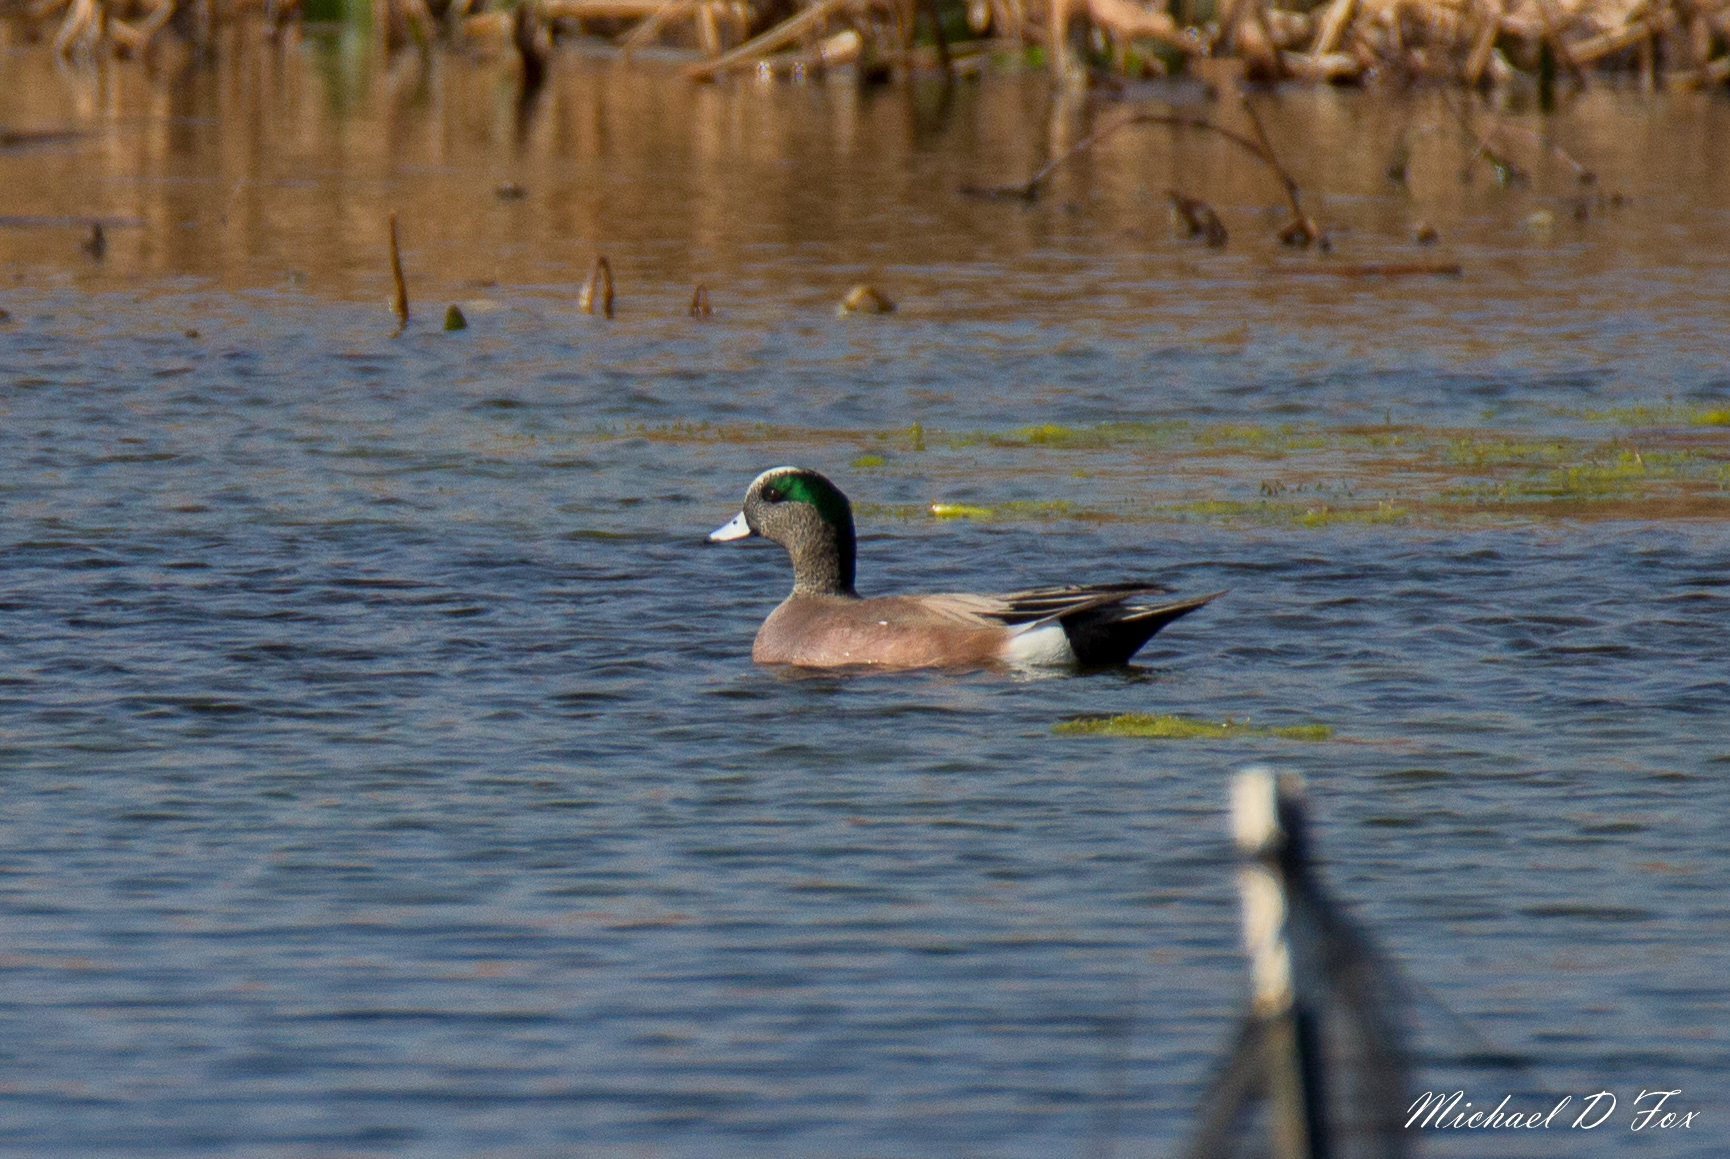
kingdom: Animalia
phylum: Chordata
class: Aves
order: Anseriformes
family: Anatidae
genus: Mareca
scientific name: Mareca americana
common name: American wigeon
